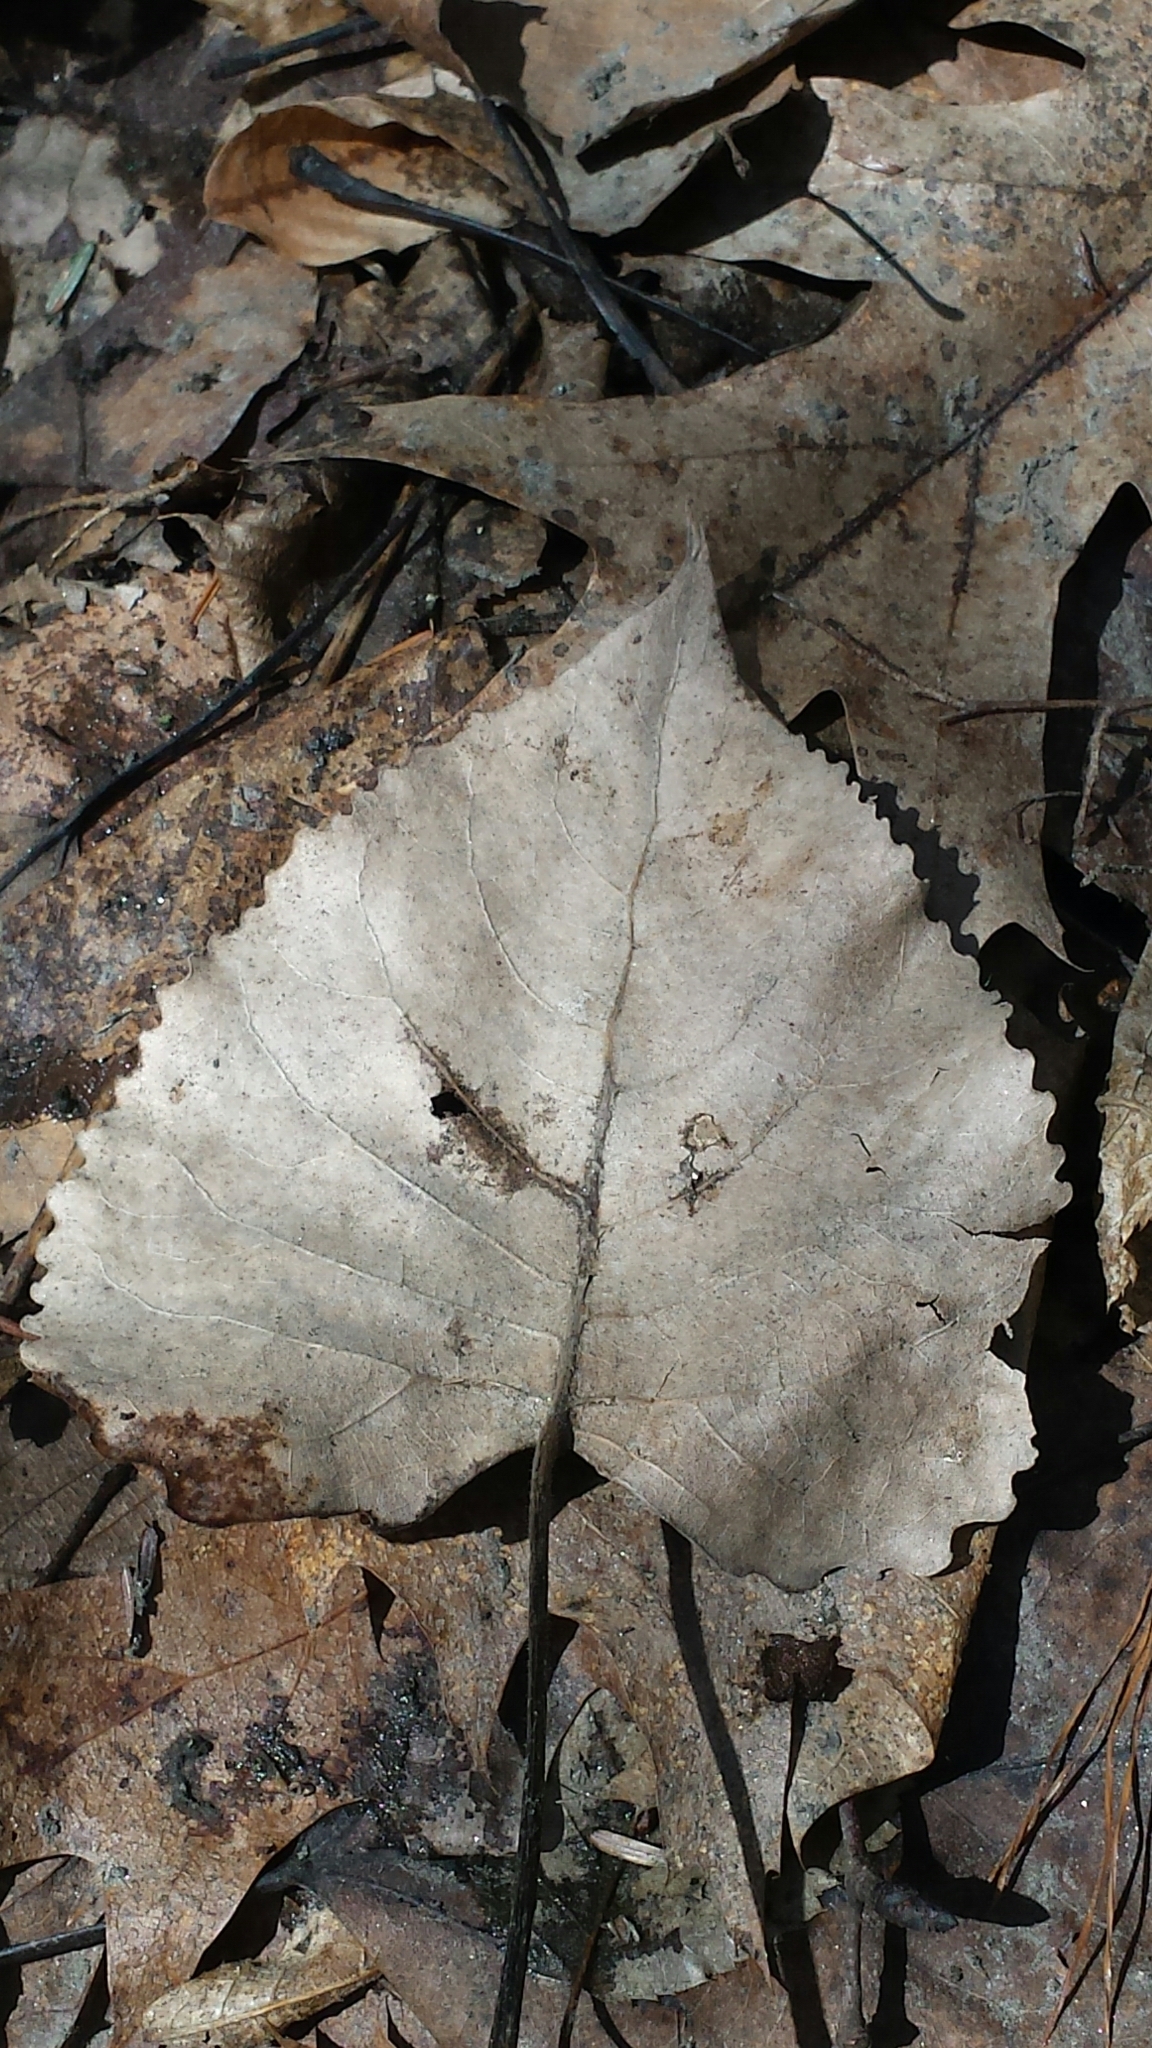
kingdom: Plantae
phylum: Tracheophyta
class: Magnoliopsida
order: Malpighiales
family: Salicaceae
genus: Populus
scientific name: Populus deltoides
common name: Eastern cottonwood
